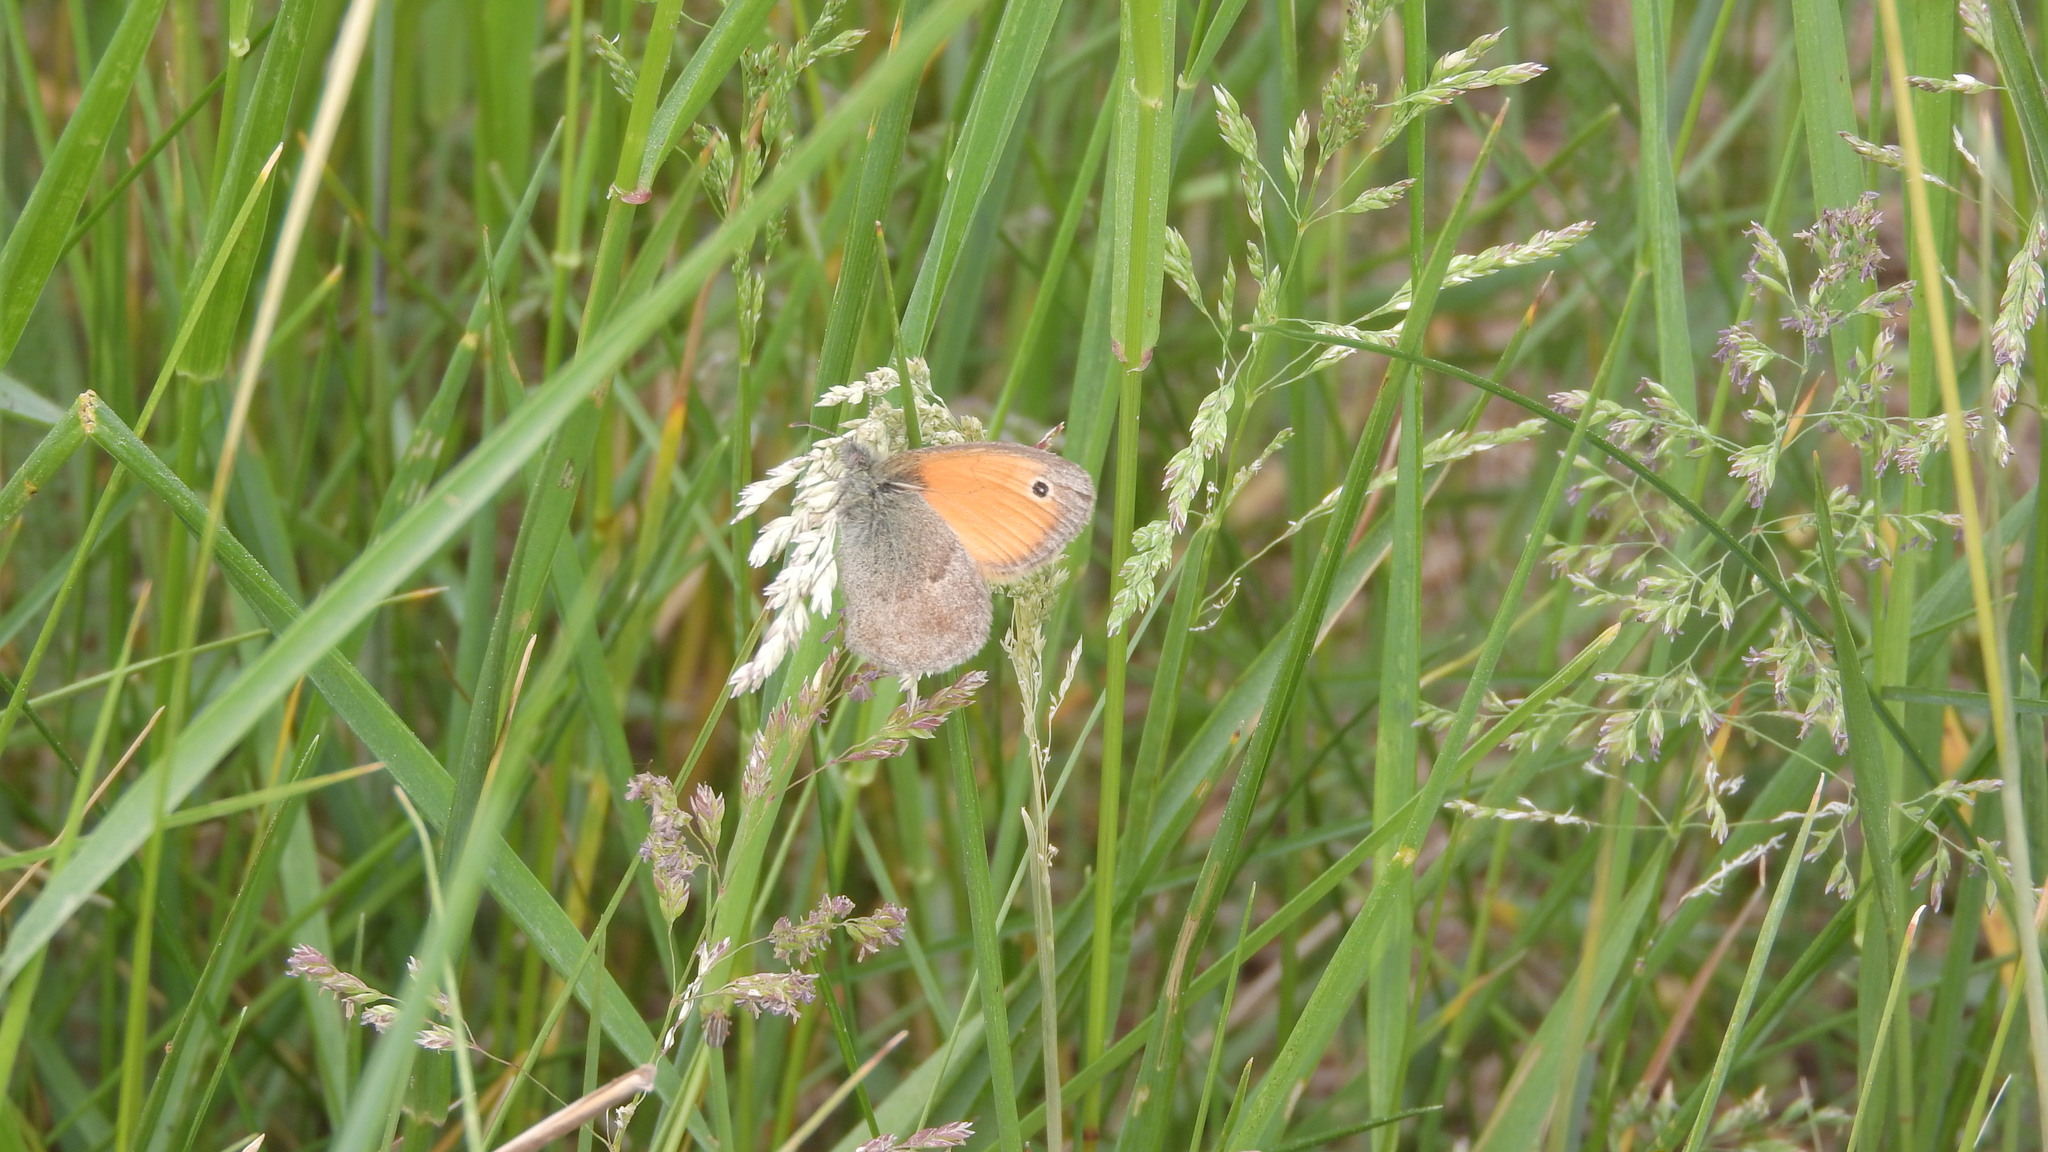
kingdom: Animalia
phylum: Arthropoda
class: Insecta
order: Lepidoptera
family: Nymphalidae
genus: Coenonympha
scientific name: Coenonympha pamphilus
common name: Small heath
